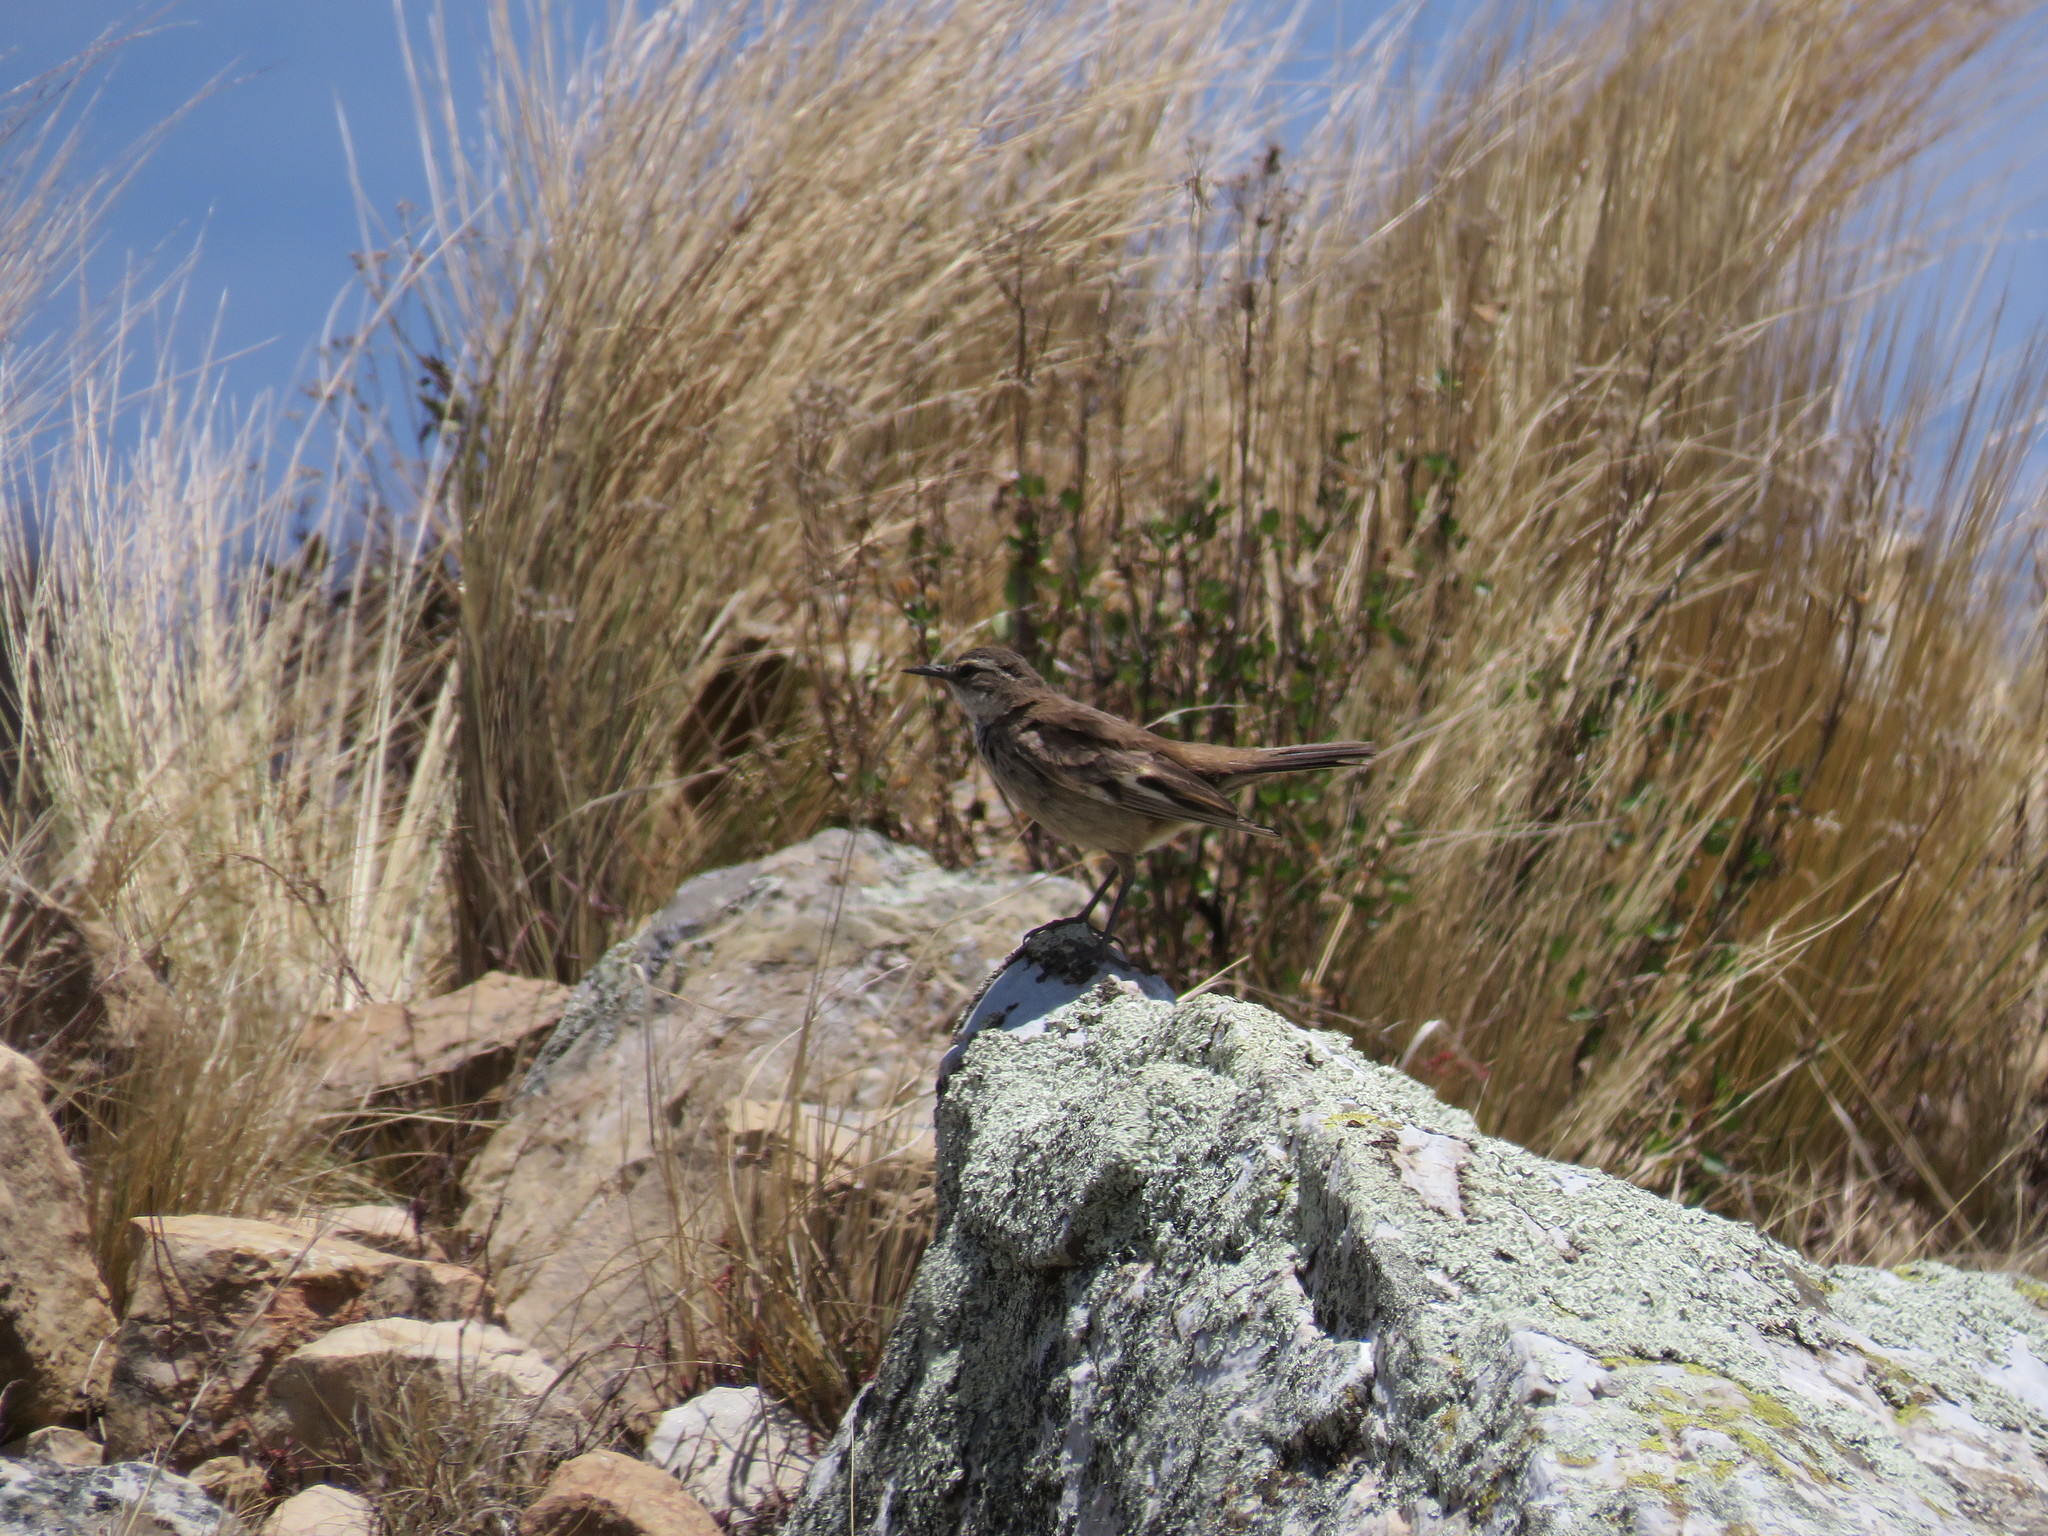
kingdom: Animalia
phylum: Chordata
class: Aves
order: Passeriformes
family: Furnariidae
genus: Cinclodes
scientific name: Cinclodes fuscus
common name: Buff-winged cinclodes
